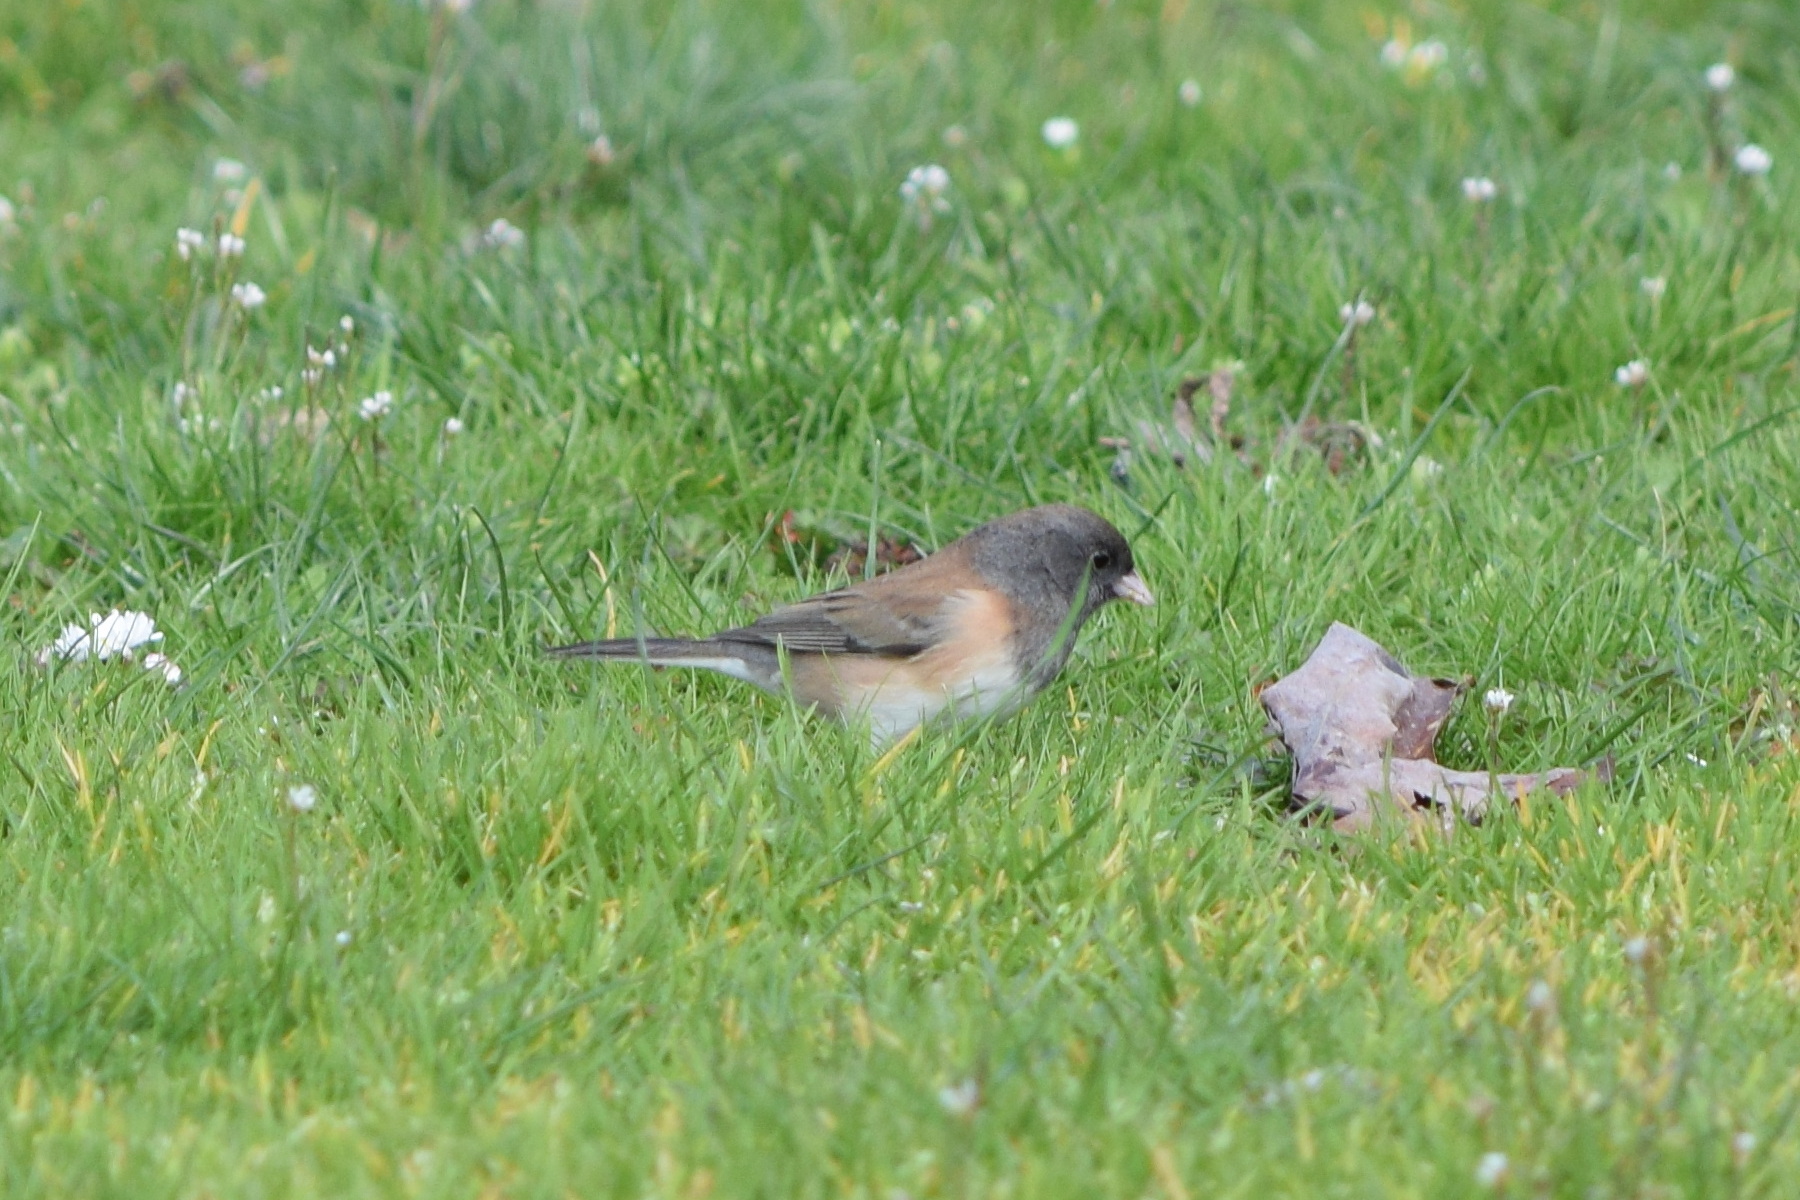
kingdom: Animalia
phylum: Chordata
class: Aves
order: Passeriformes
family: Passerellidae
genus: Junco
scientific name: Junco hyemalis
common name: Dark-eyed junco
